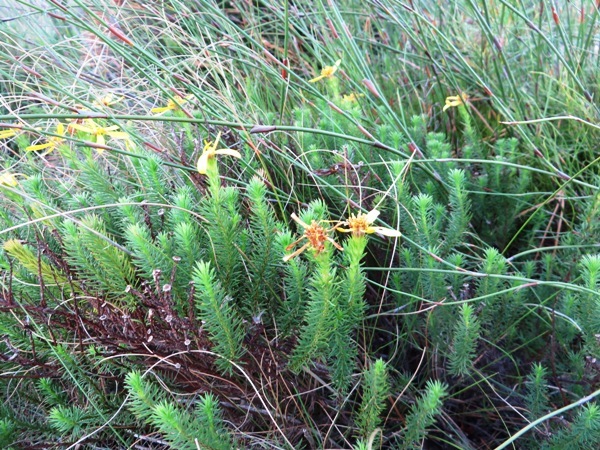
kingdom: Plantae
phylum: Tracheophyta
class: Magnoliopsida
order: Asterales
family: Asteraceae
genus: Senecio
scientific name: Senecio pinifolius
